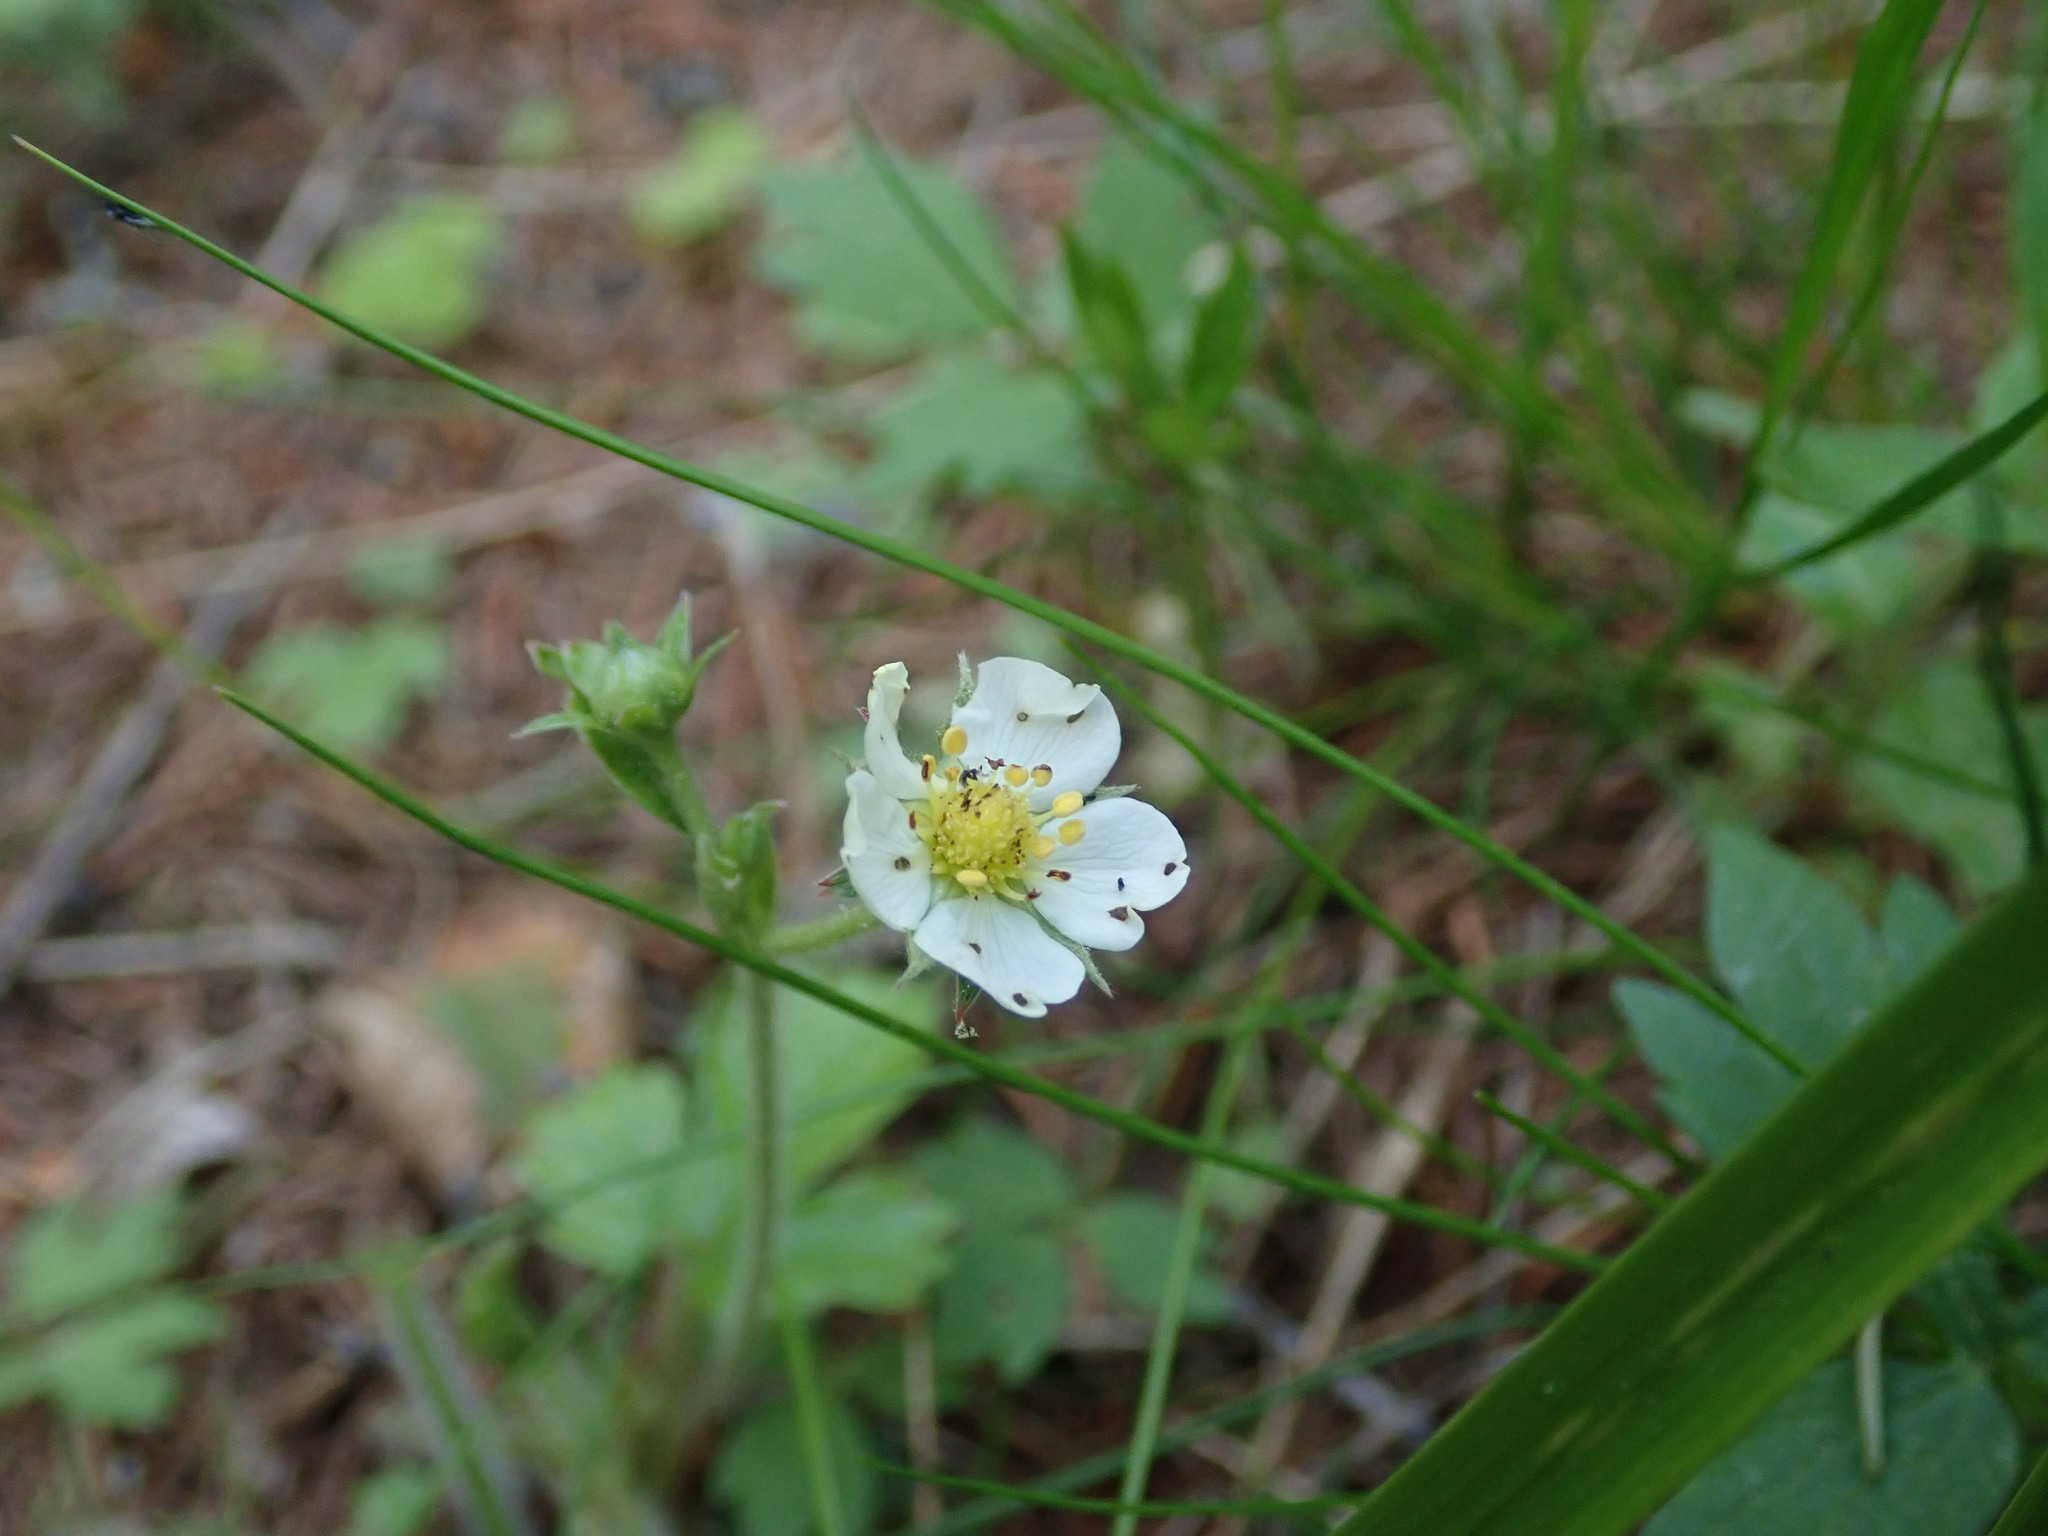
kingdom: Plantae
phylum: Tracheophyta
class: Magnoliopsida
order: Rosales
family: Rosaceae
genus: Fragaria
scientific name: Fragaria vesca
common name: Wild strawberry
